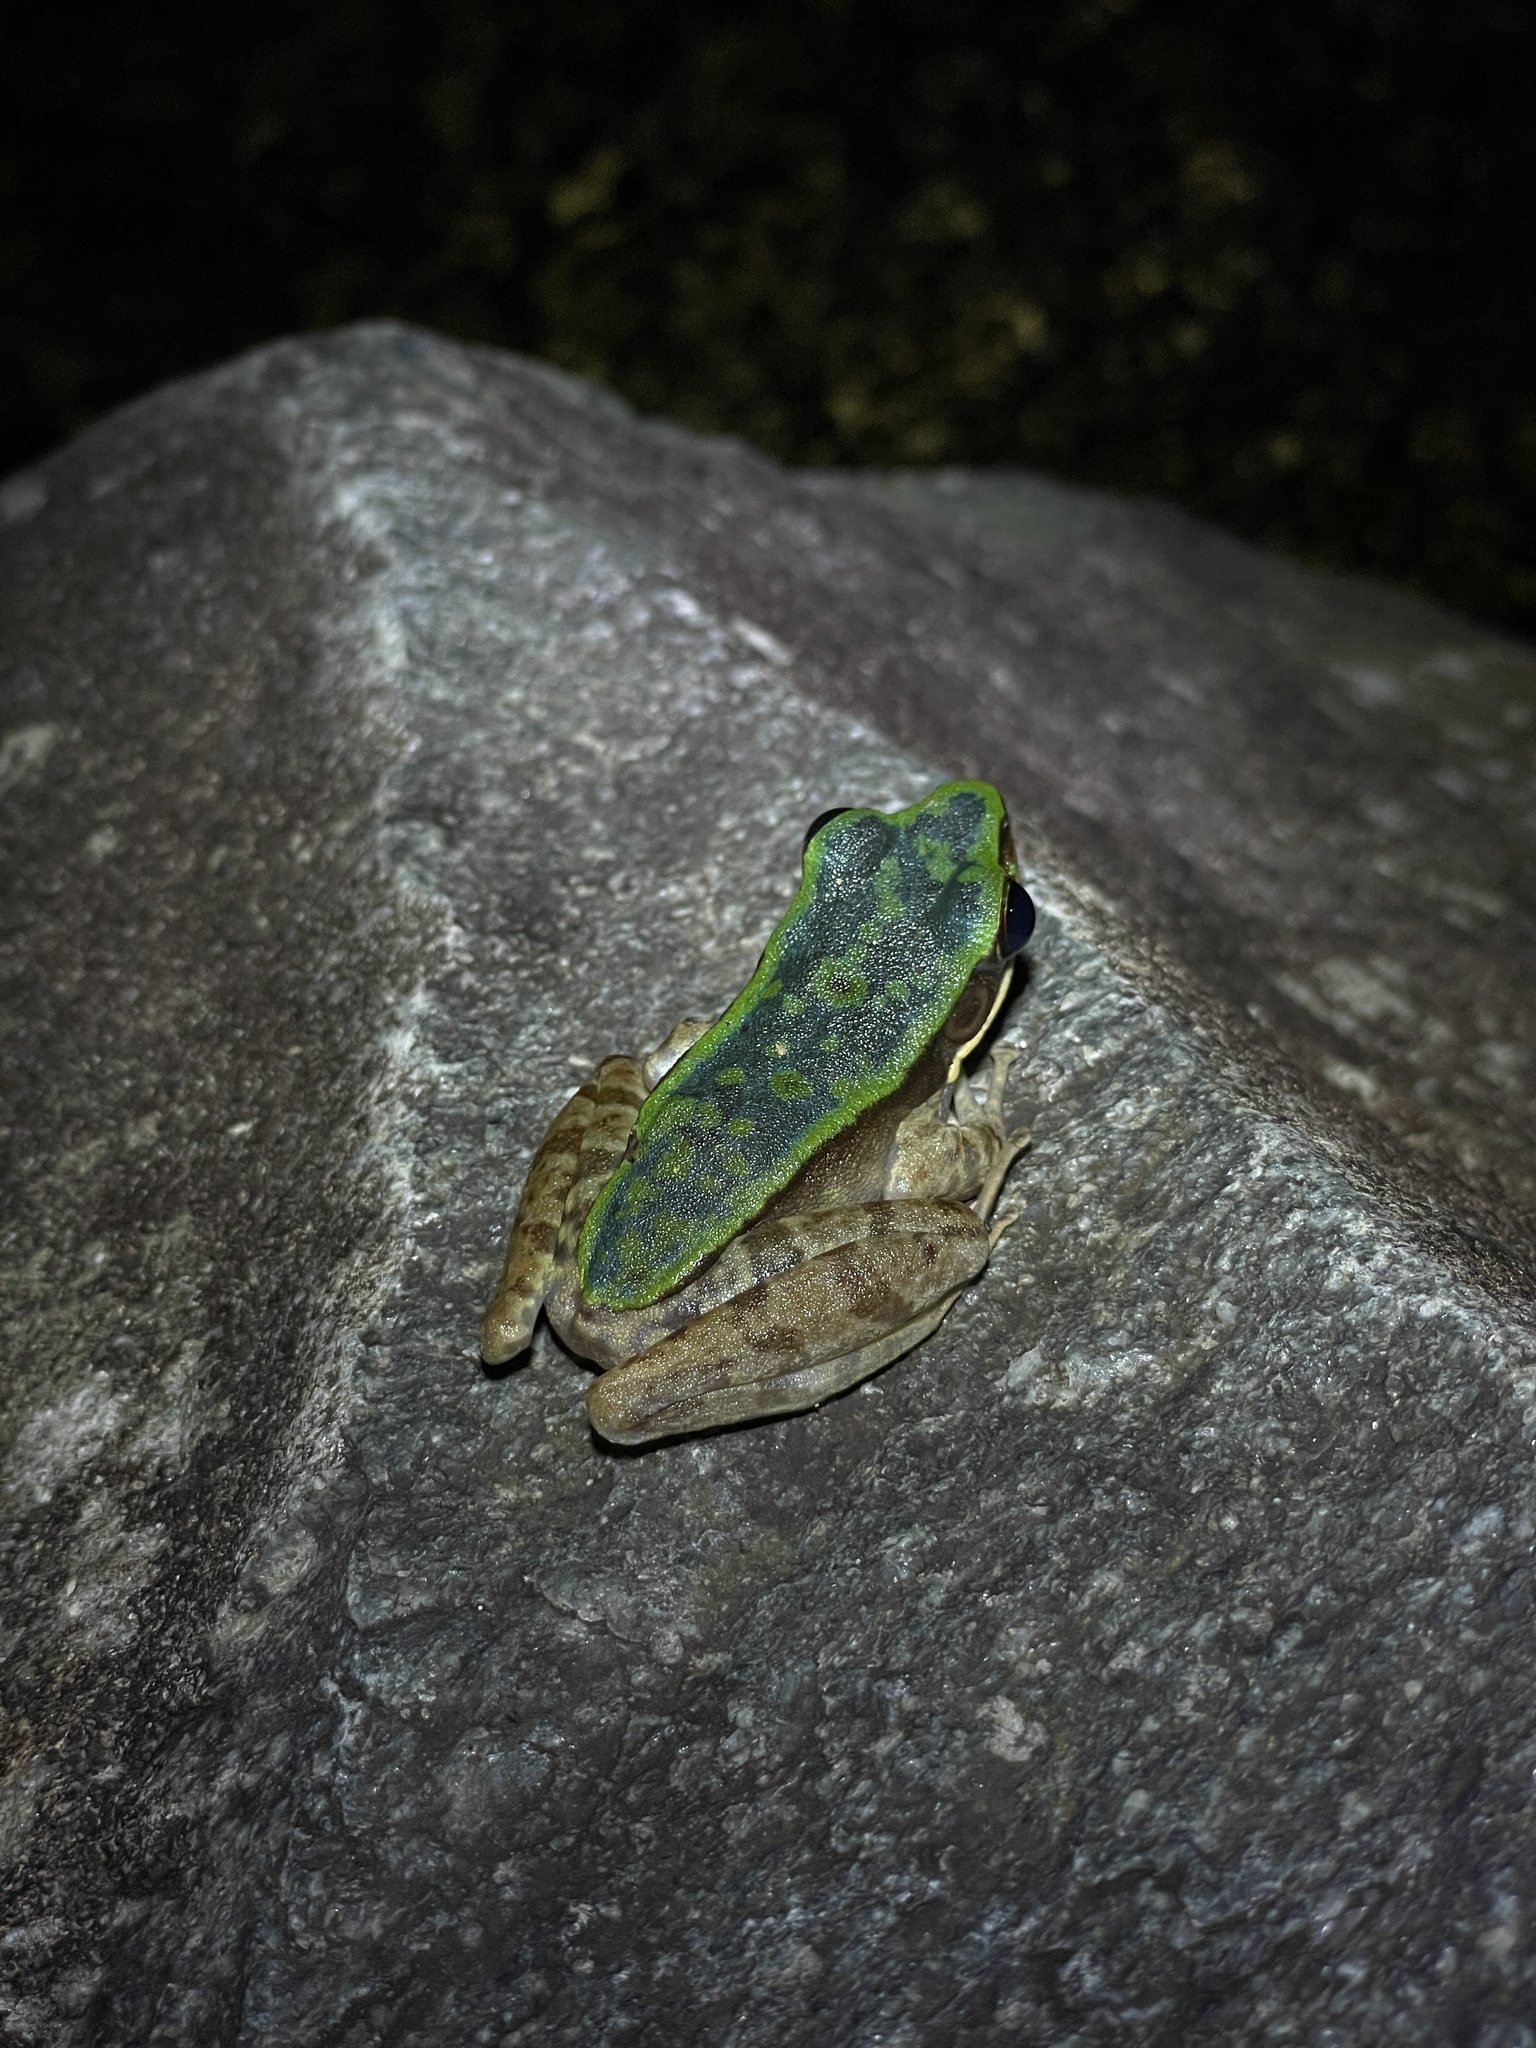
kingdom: Animalia
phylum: Chordata
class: Amphibia
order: Anura
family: Ranidae
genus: Odorrana
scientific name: Odorrana graminea
